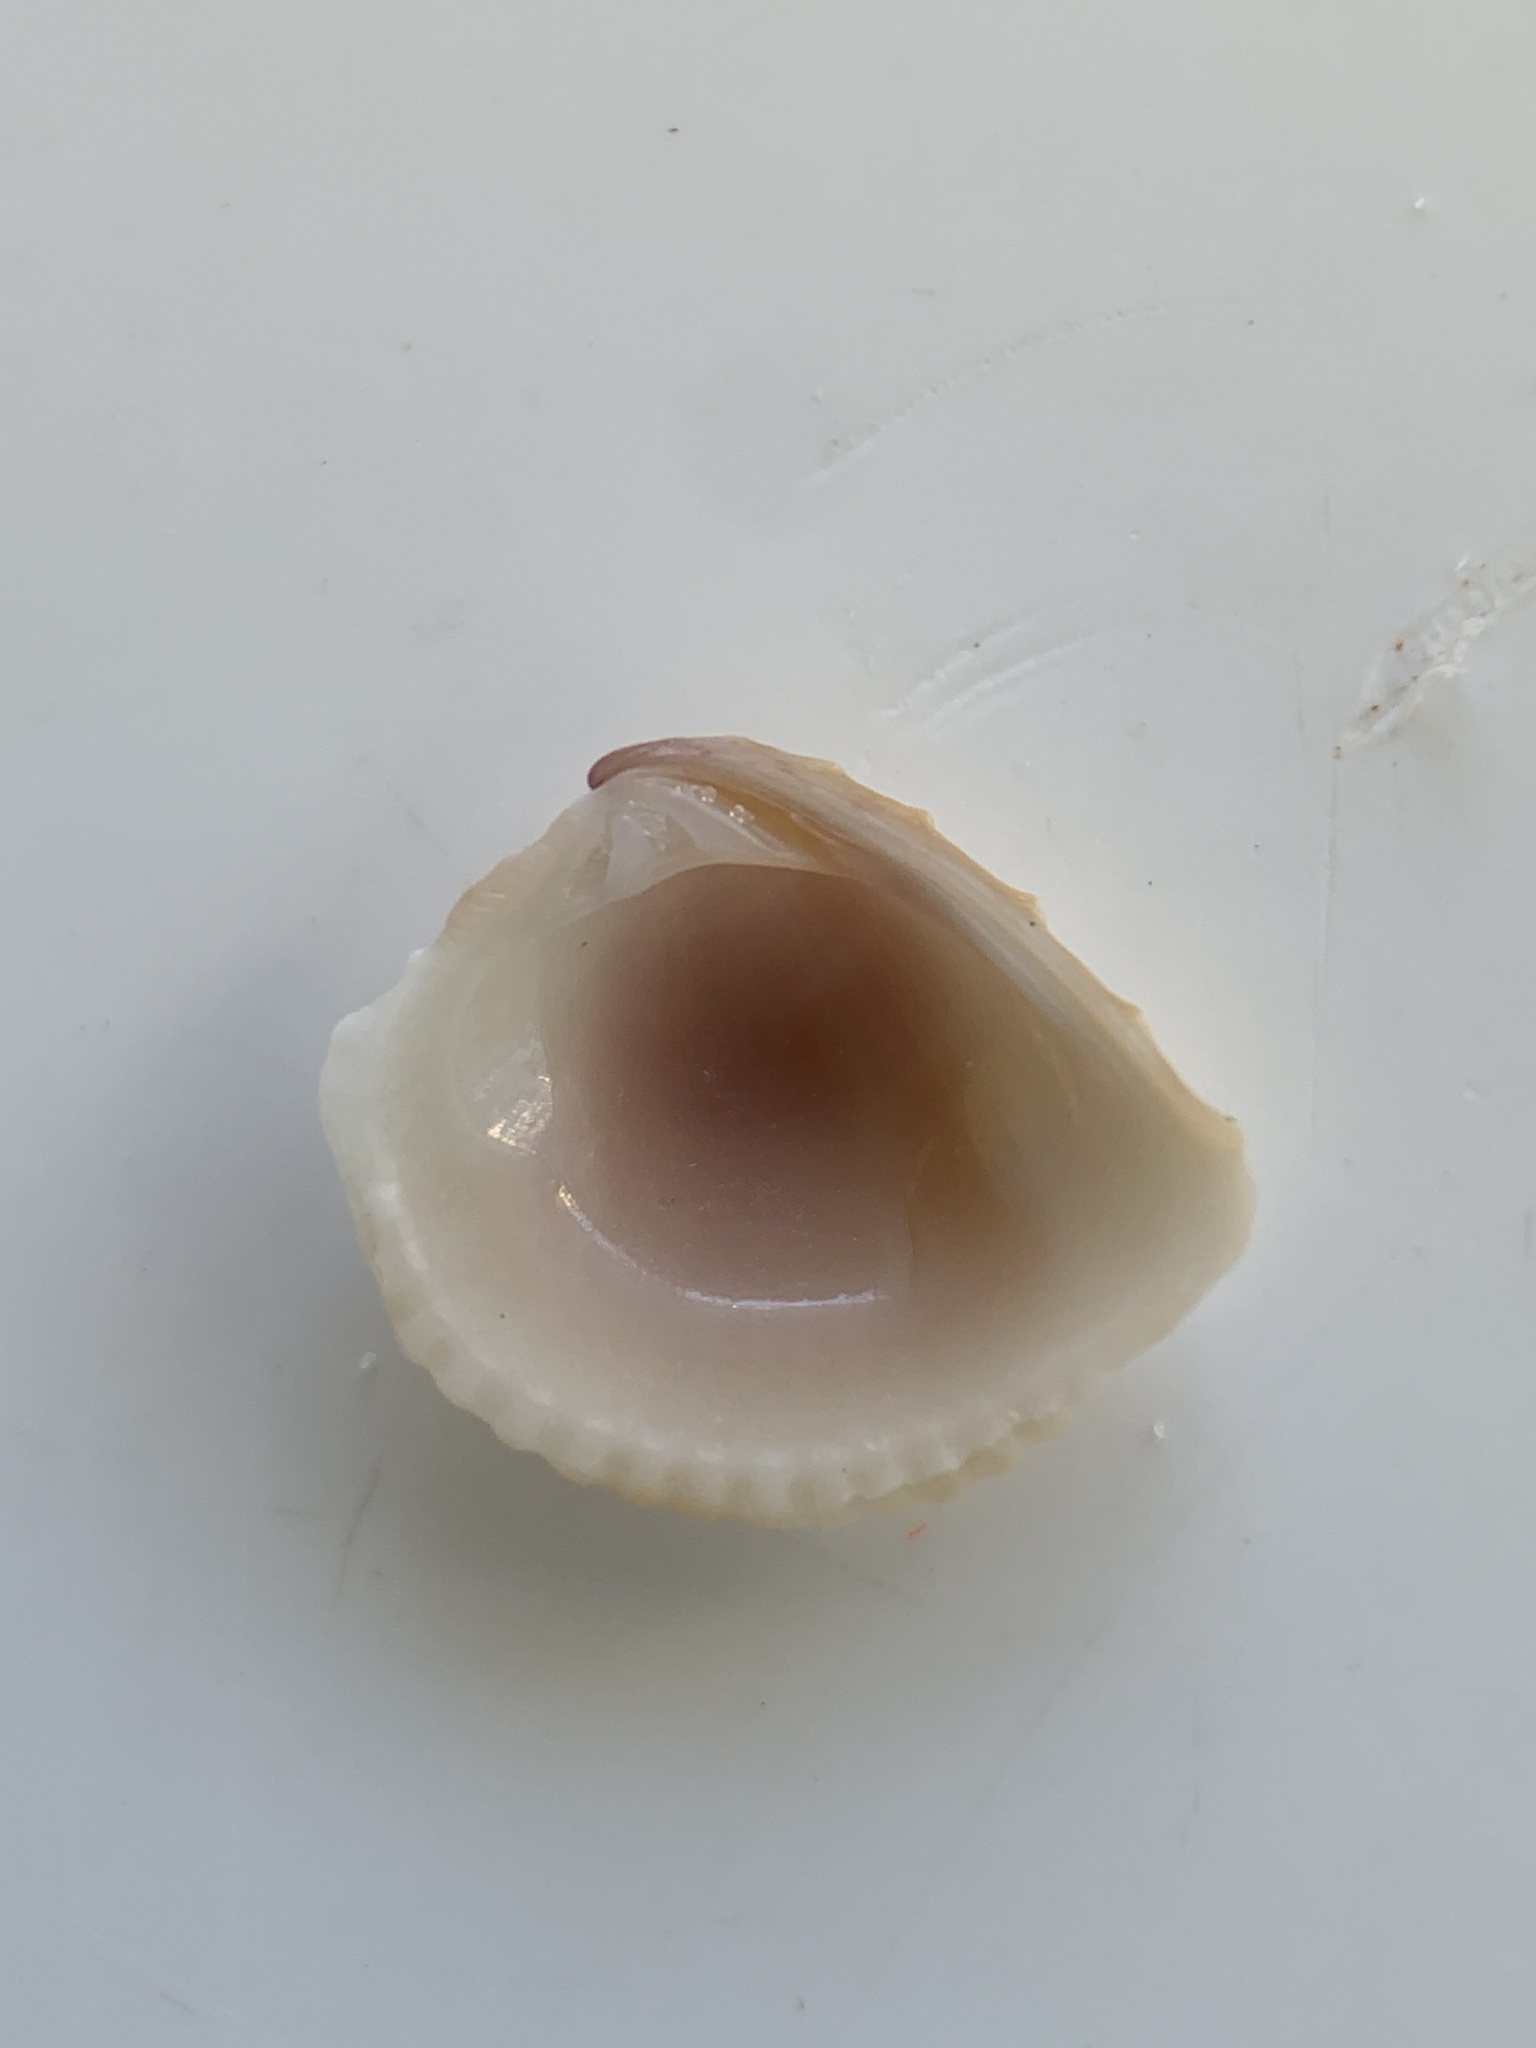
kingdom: Animalia
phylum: Mollusca
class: Bivalvia
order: Venerida
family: Veneridae
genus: Chione
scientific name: Chione elevata
